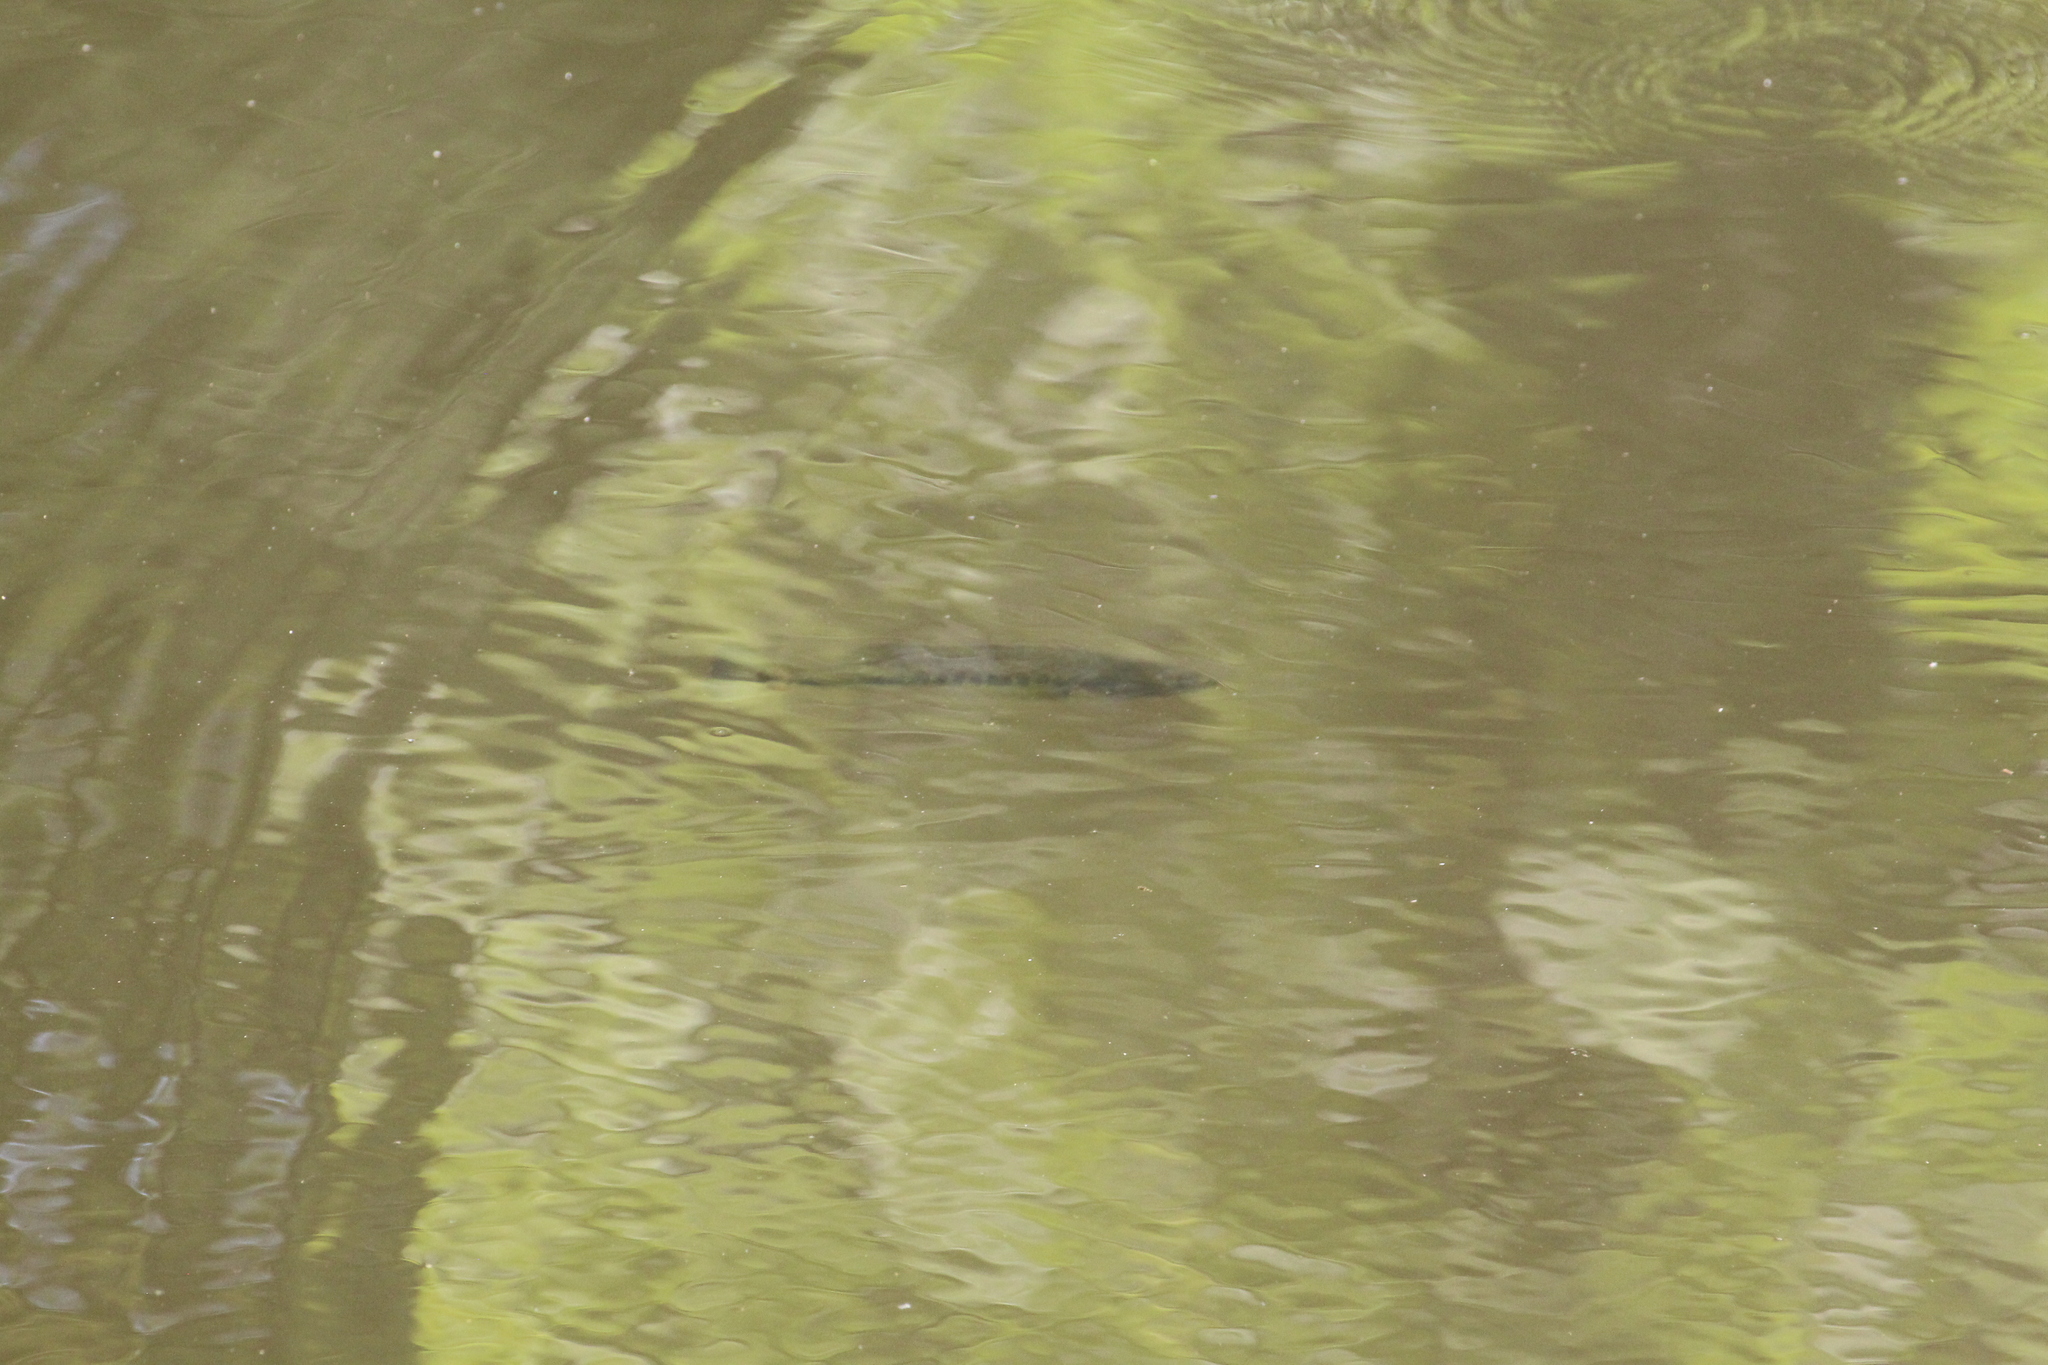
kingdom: Animalia
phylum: Chordata
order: Perciformes
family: Centrarchidae
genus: Micropterus
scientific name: Micropterus
